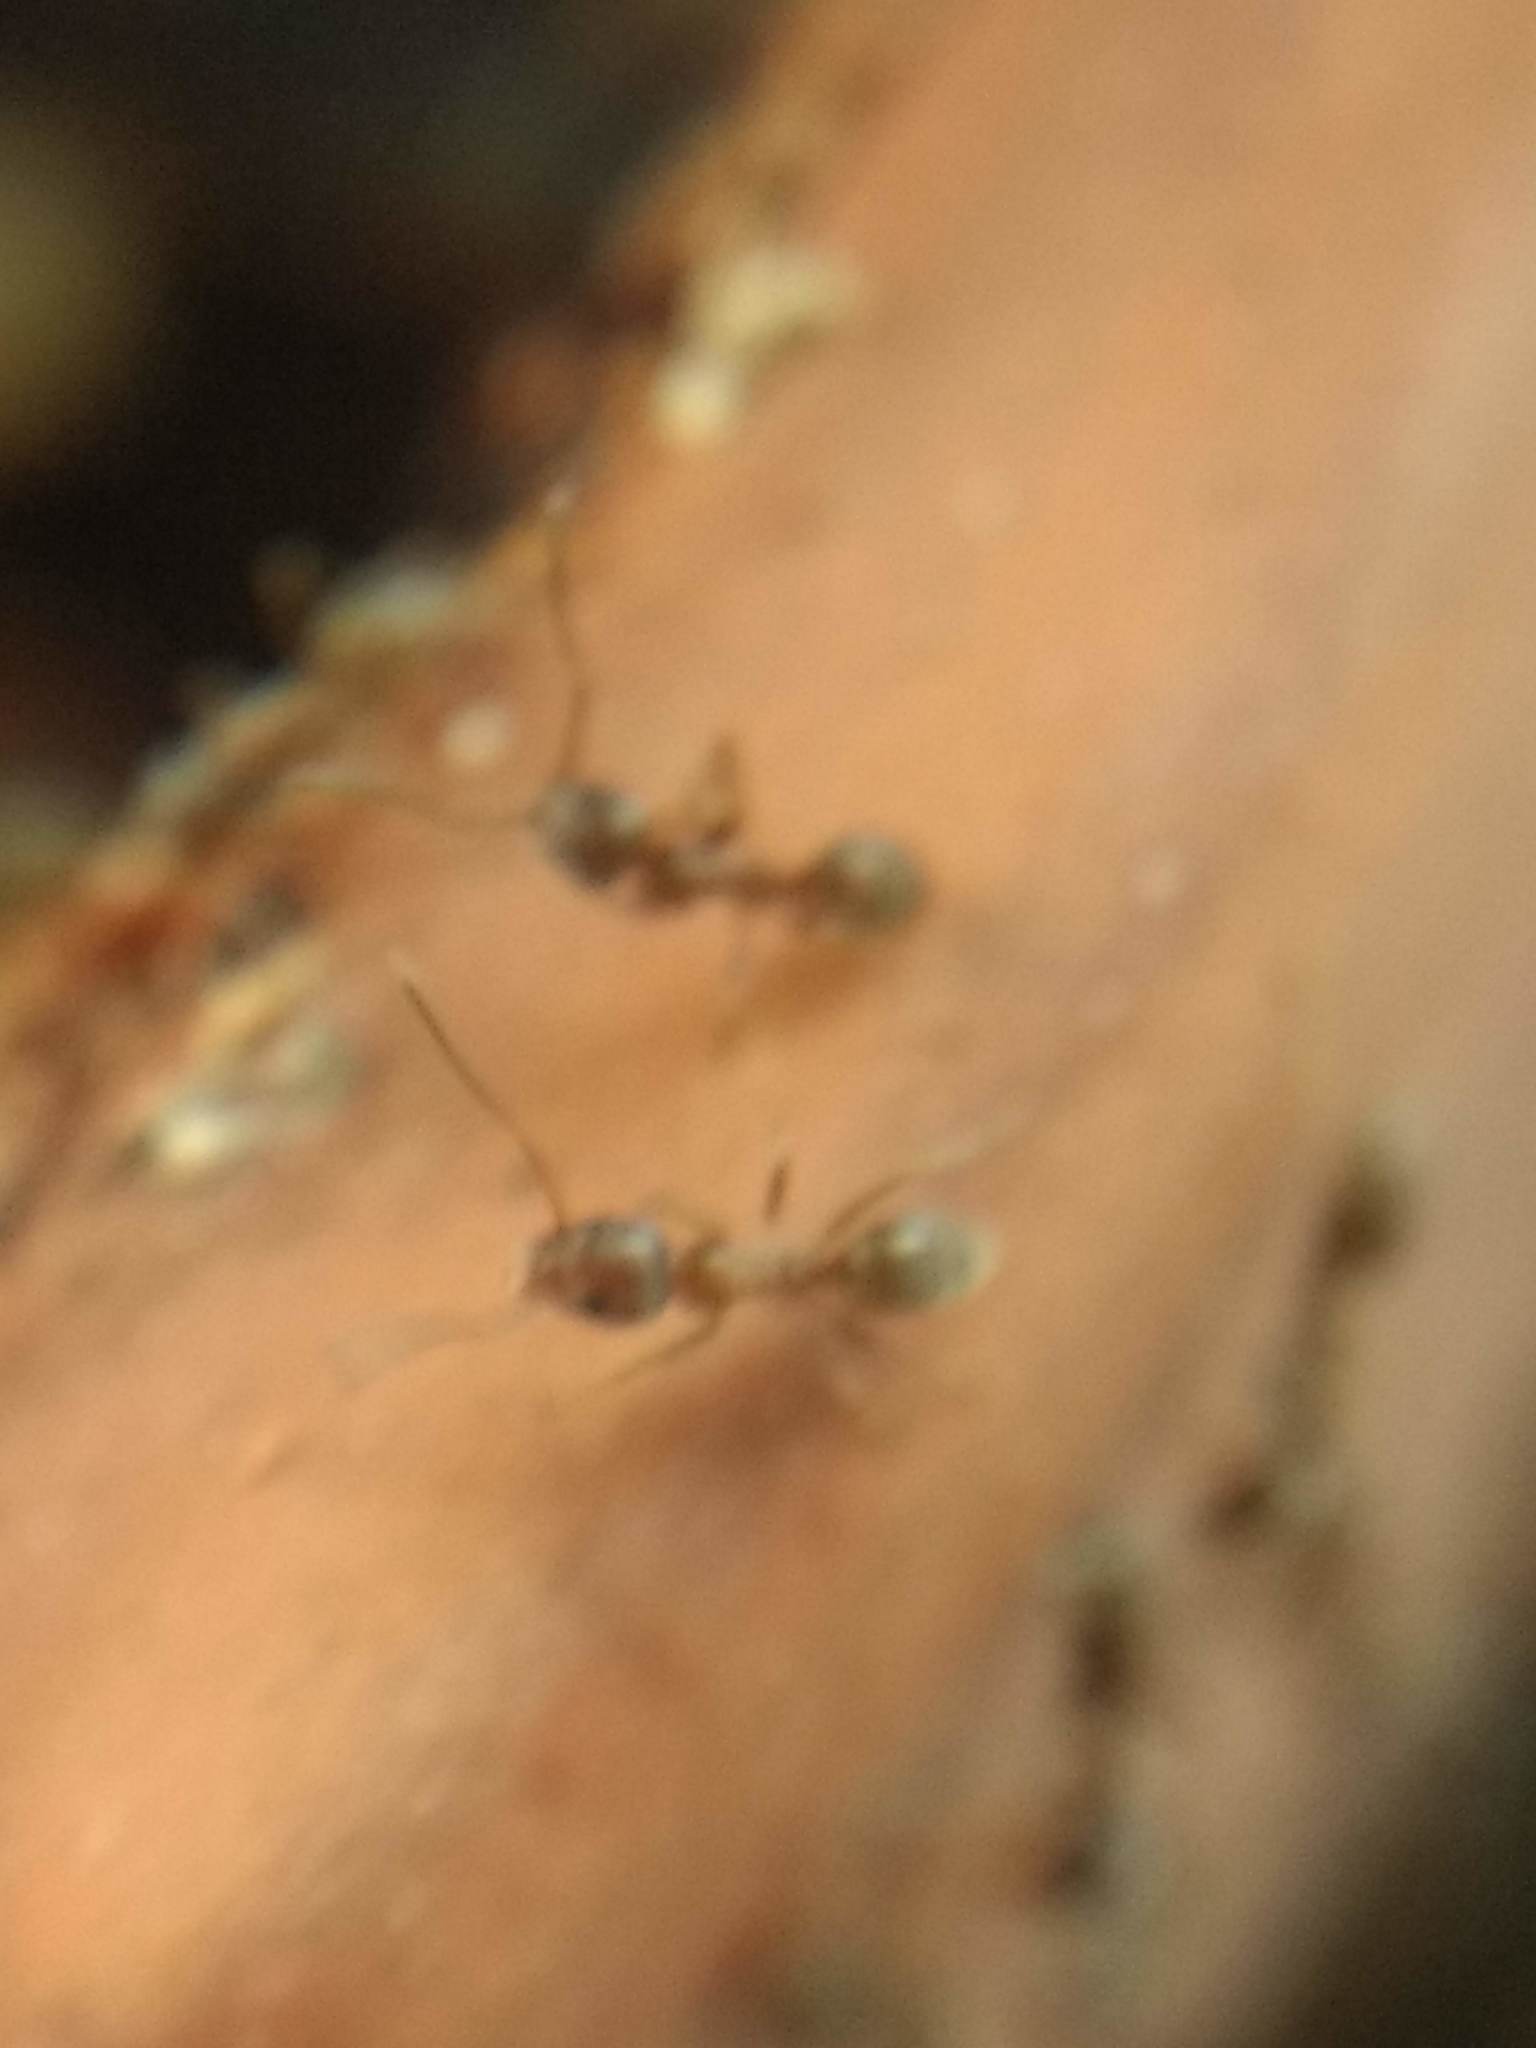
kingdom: Animalia
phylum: Arthropoda
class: Insecta
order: Hymenoptera
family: Formicidae
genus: Linepithema
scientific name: Linepithema humile
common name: Argentine ant
